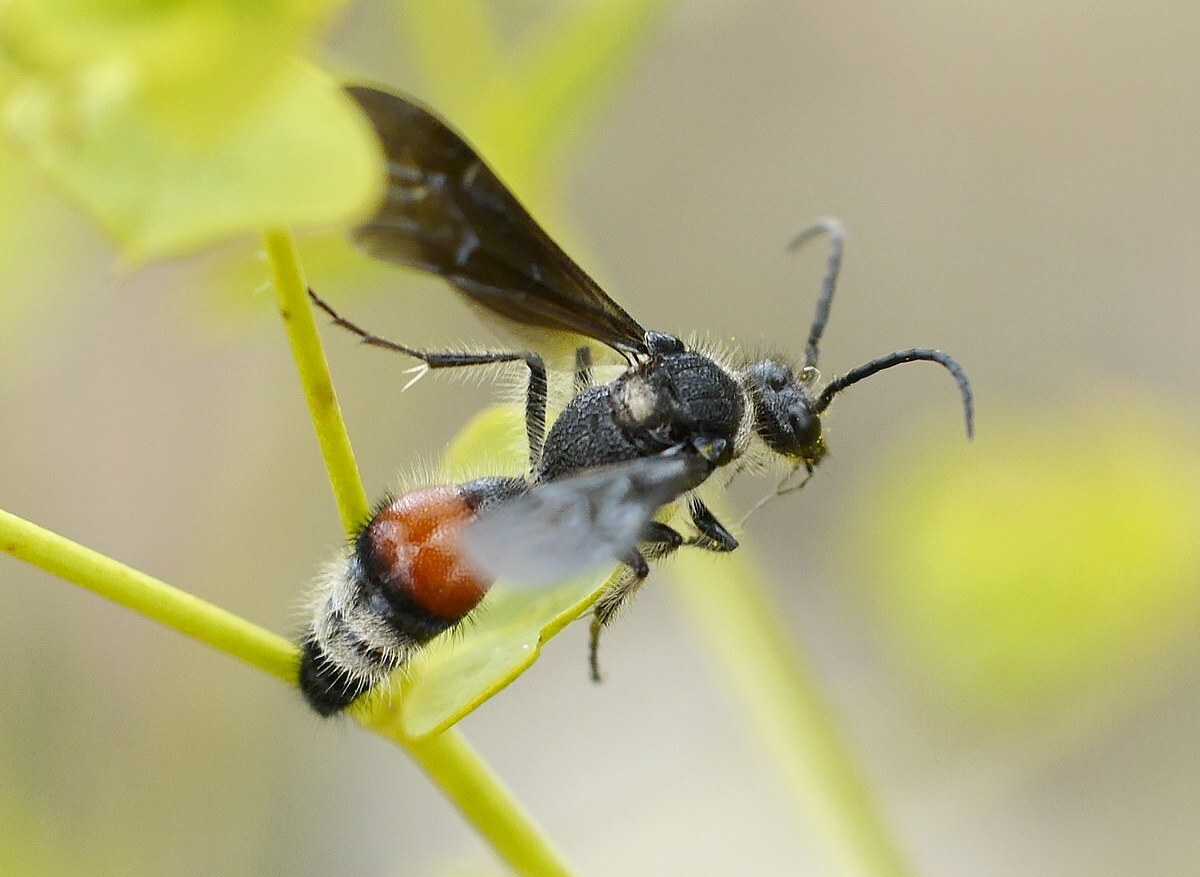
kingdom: Animalia
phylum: Arthropoda
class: Insecta
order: Hymenoptera
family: Mutillidae
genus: Nemka
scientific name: Nemka viduata
